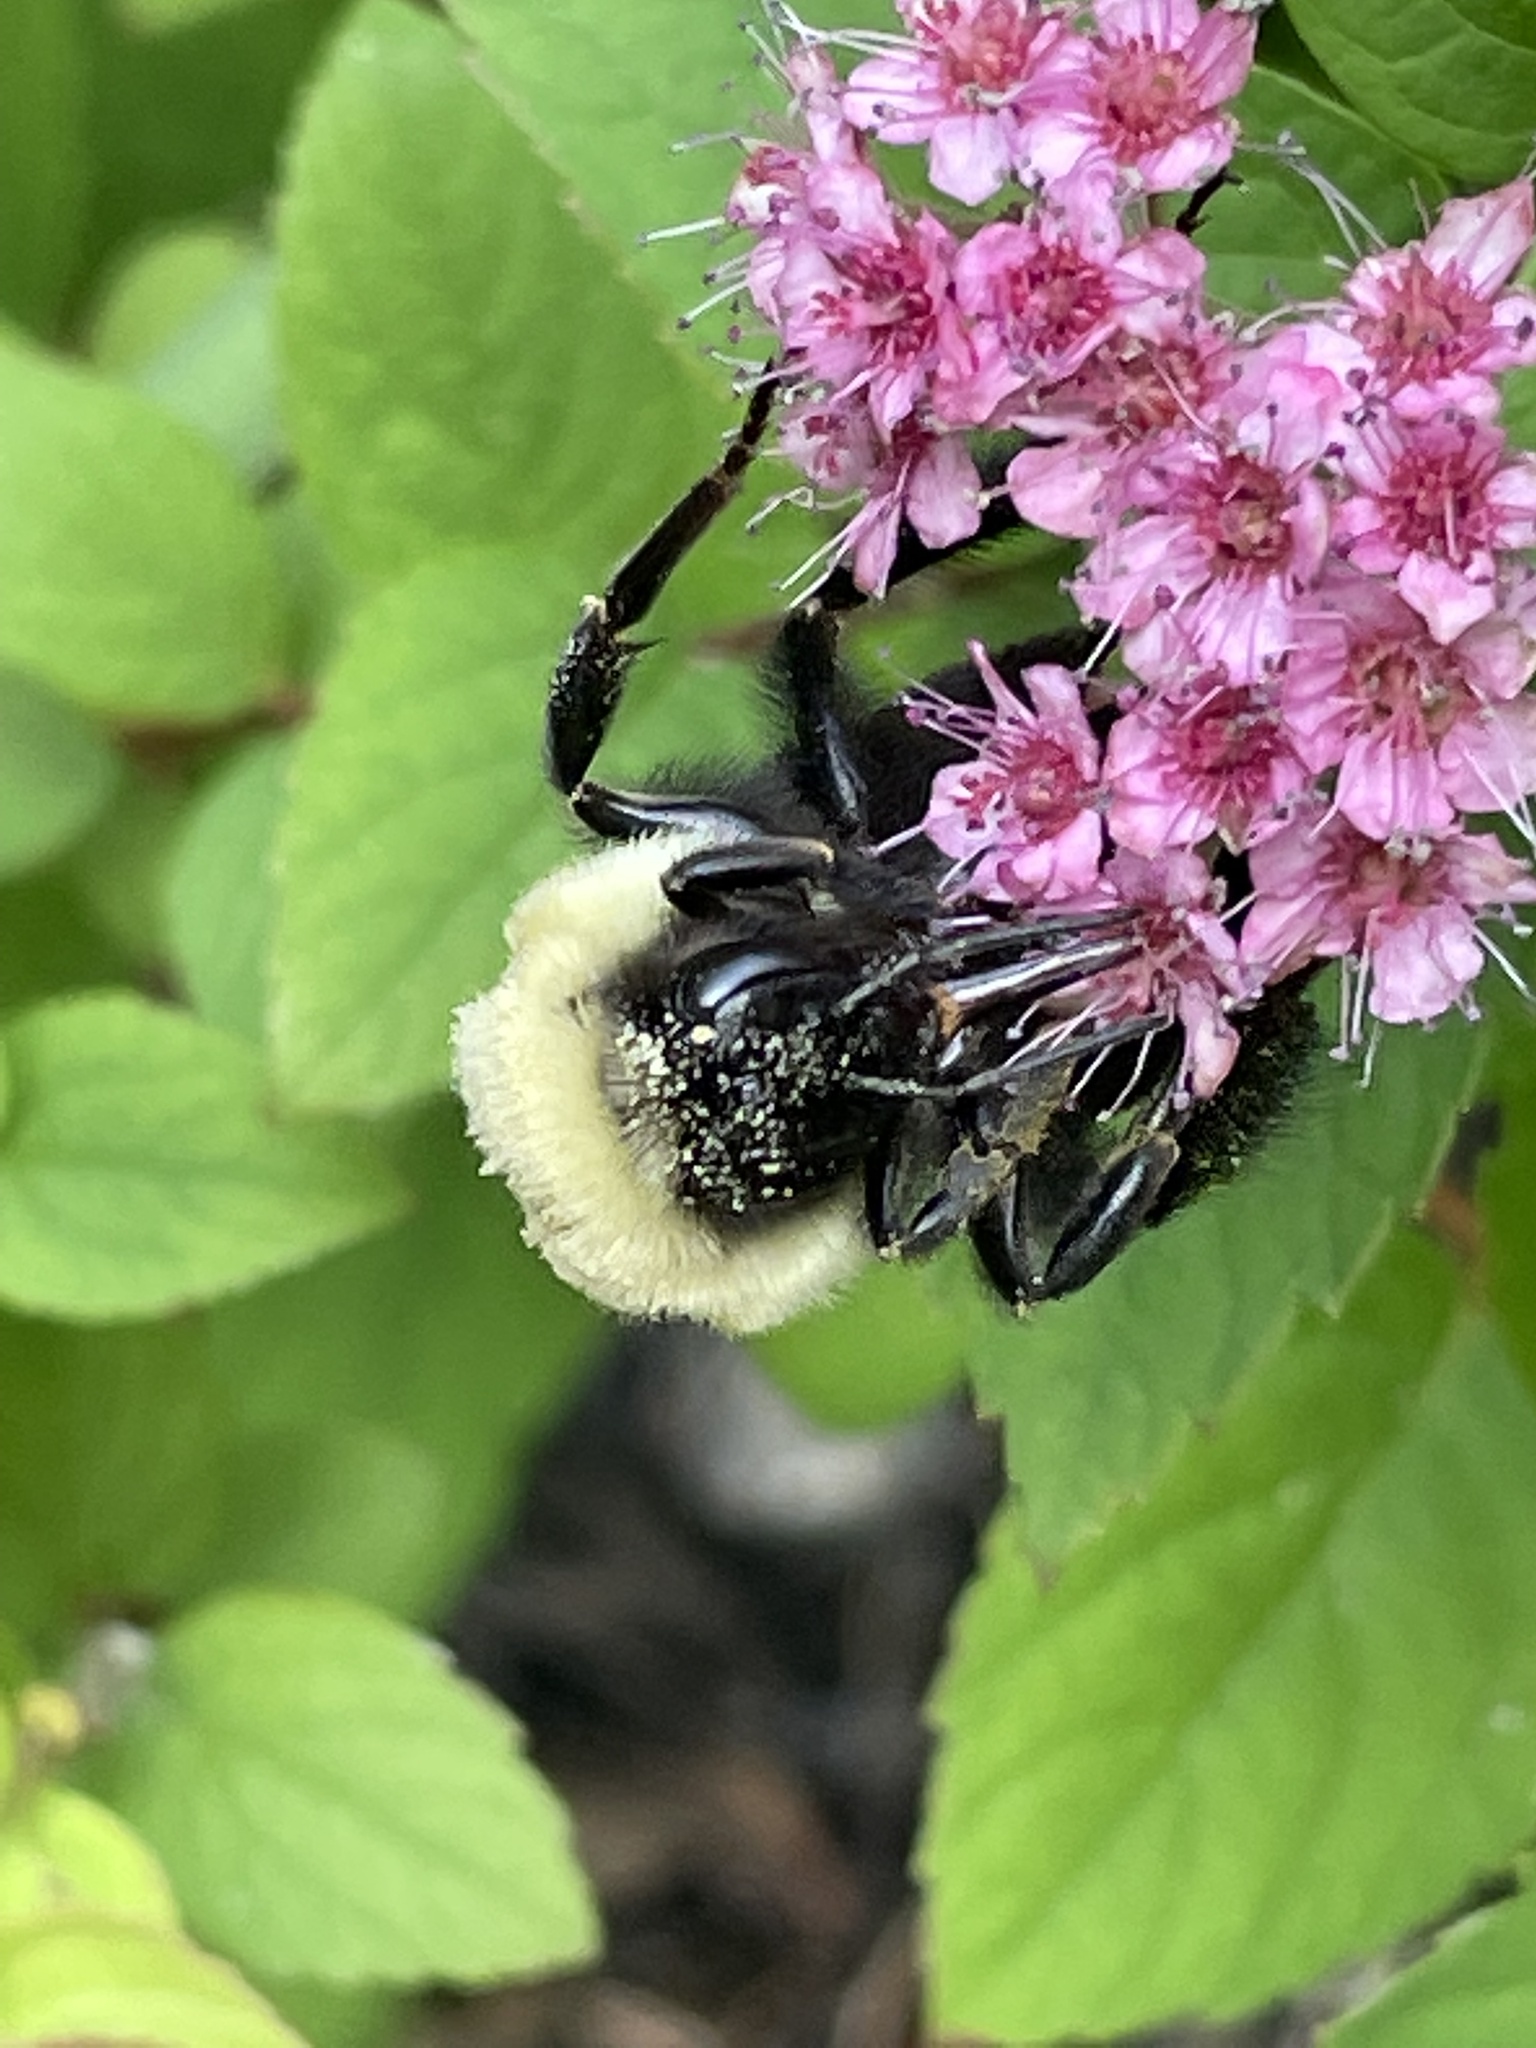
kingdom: Animalia
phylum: Arthropoda
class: Insecta
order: Hymenoptera
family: Apidae
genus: Bombus
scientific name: Bombus impatiens
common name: Common eastern bumble bee
